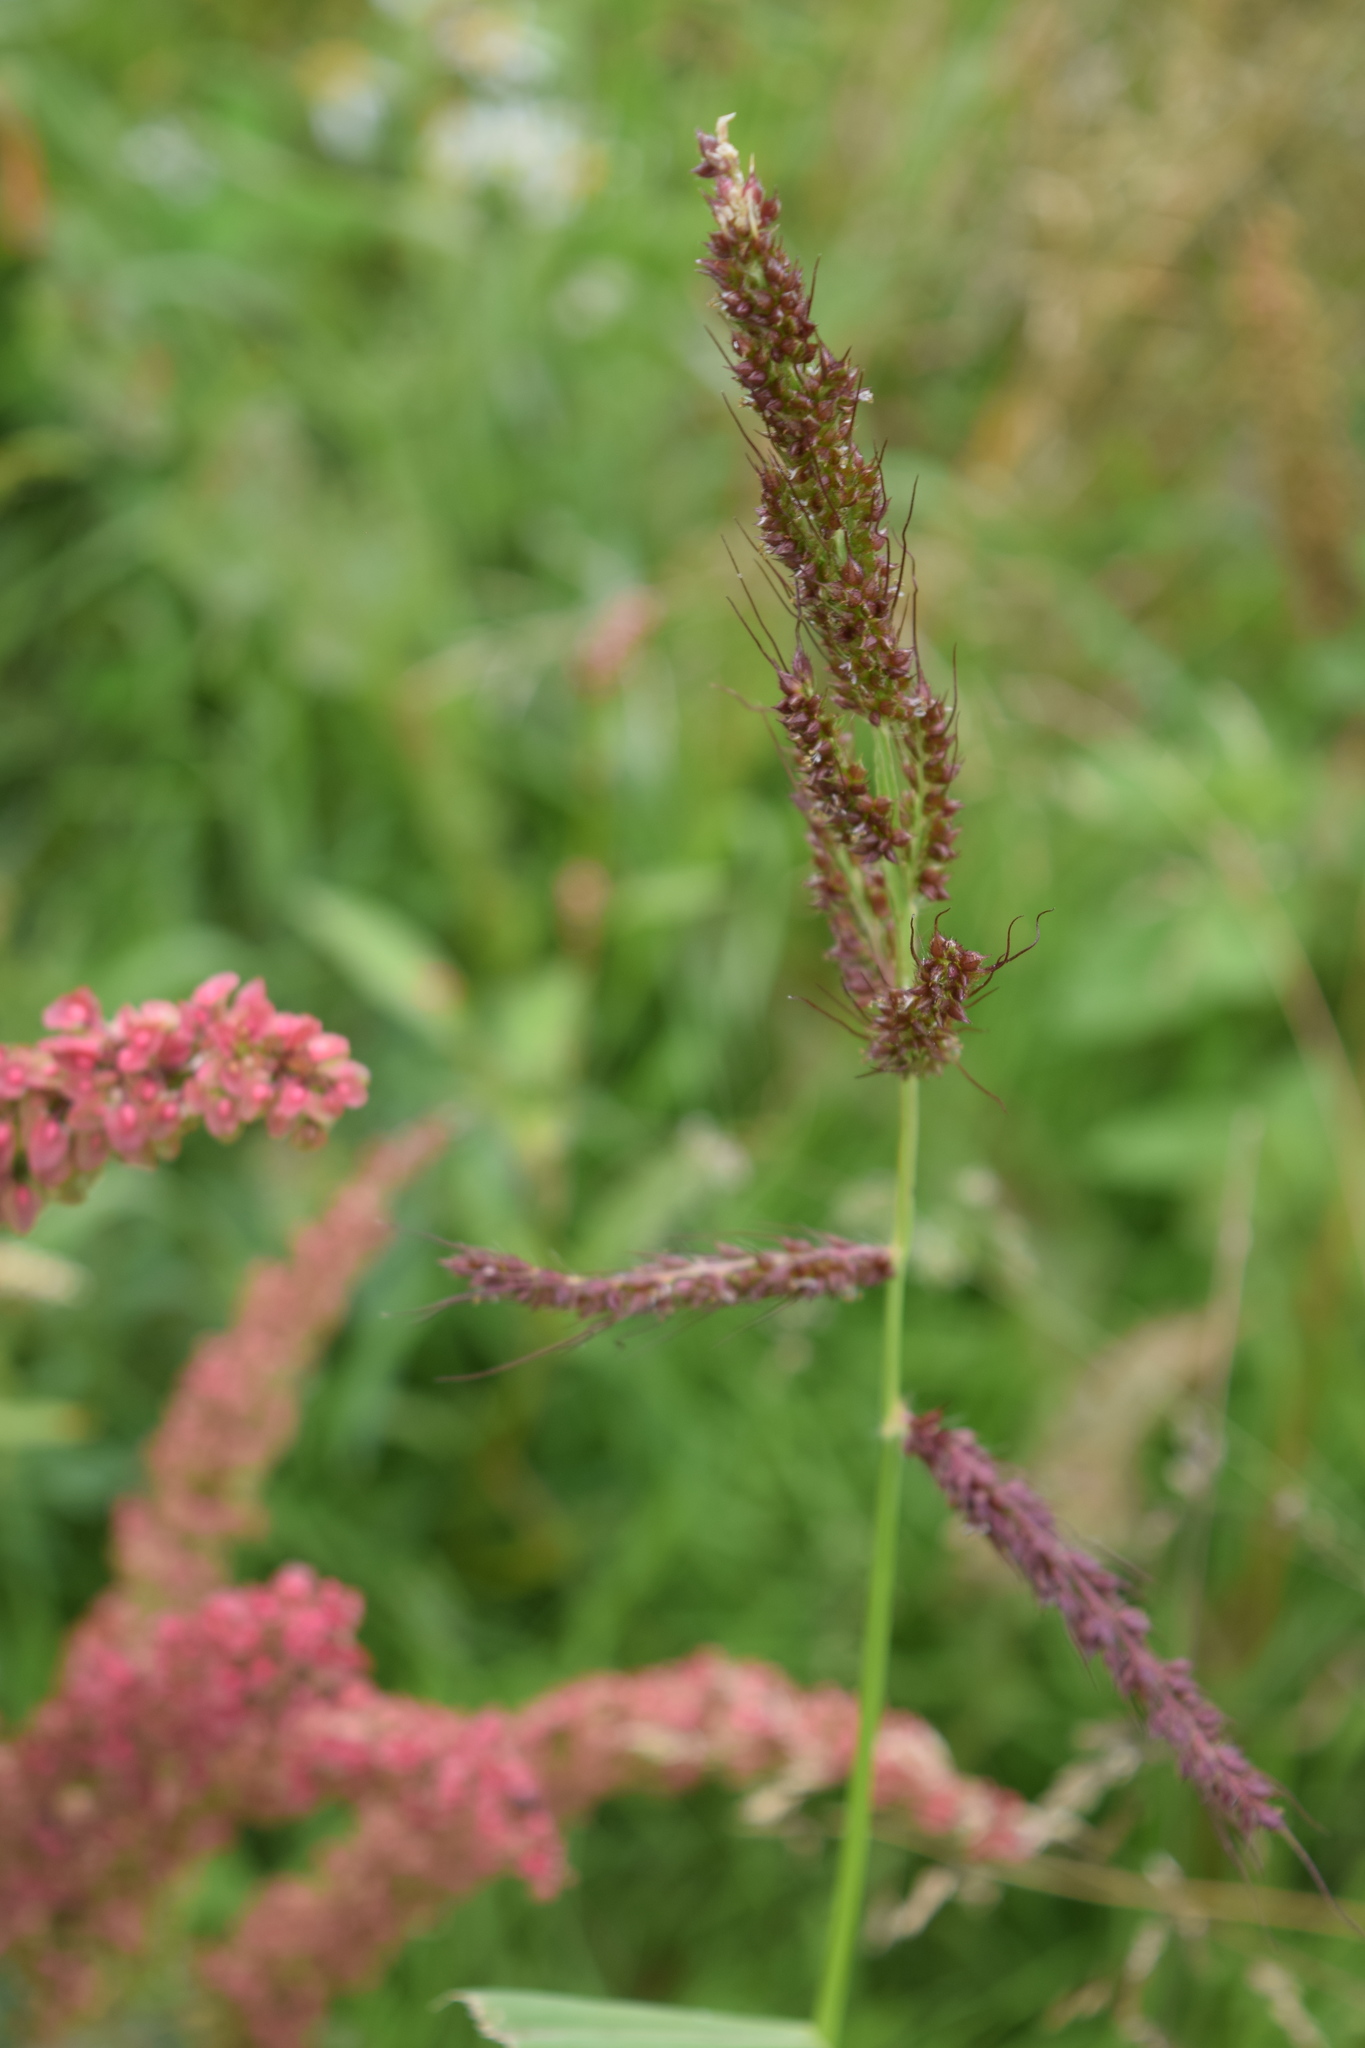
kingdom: Plantae
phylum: Tracheophyta
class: Liliopsida
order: Poales
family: Poaceae
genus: Echinochloa
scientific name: Echinochloa crus-galli
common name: Cockspur
